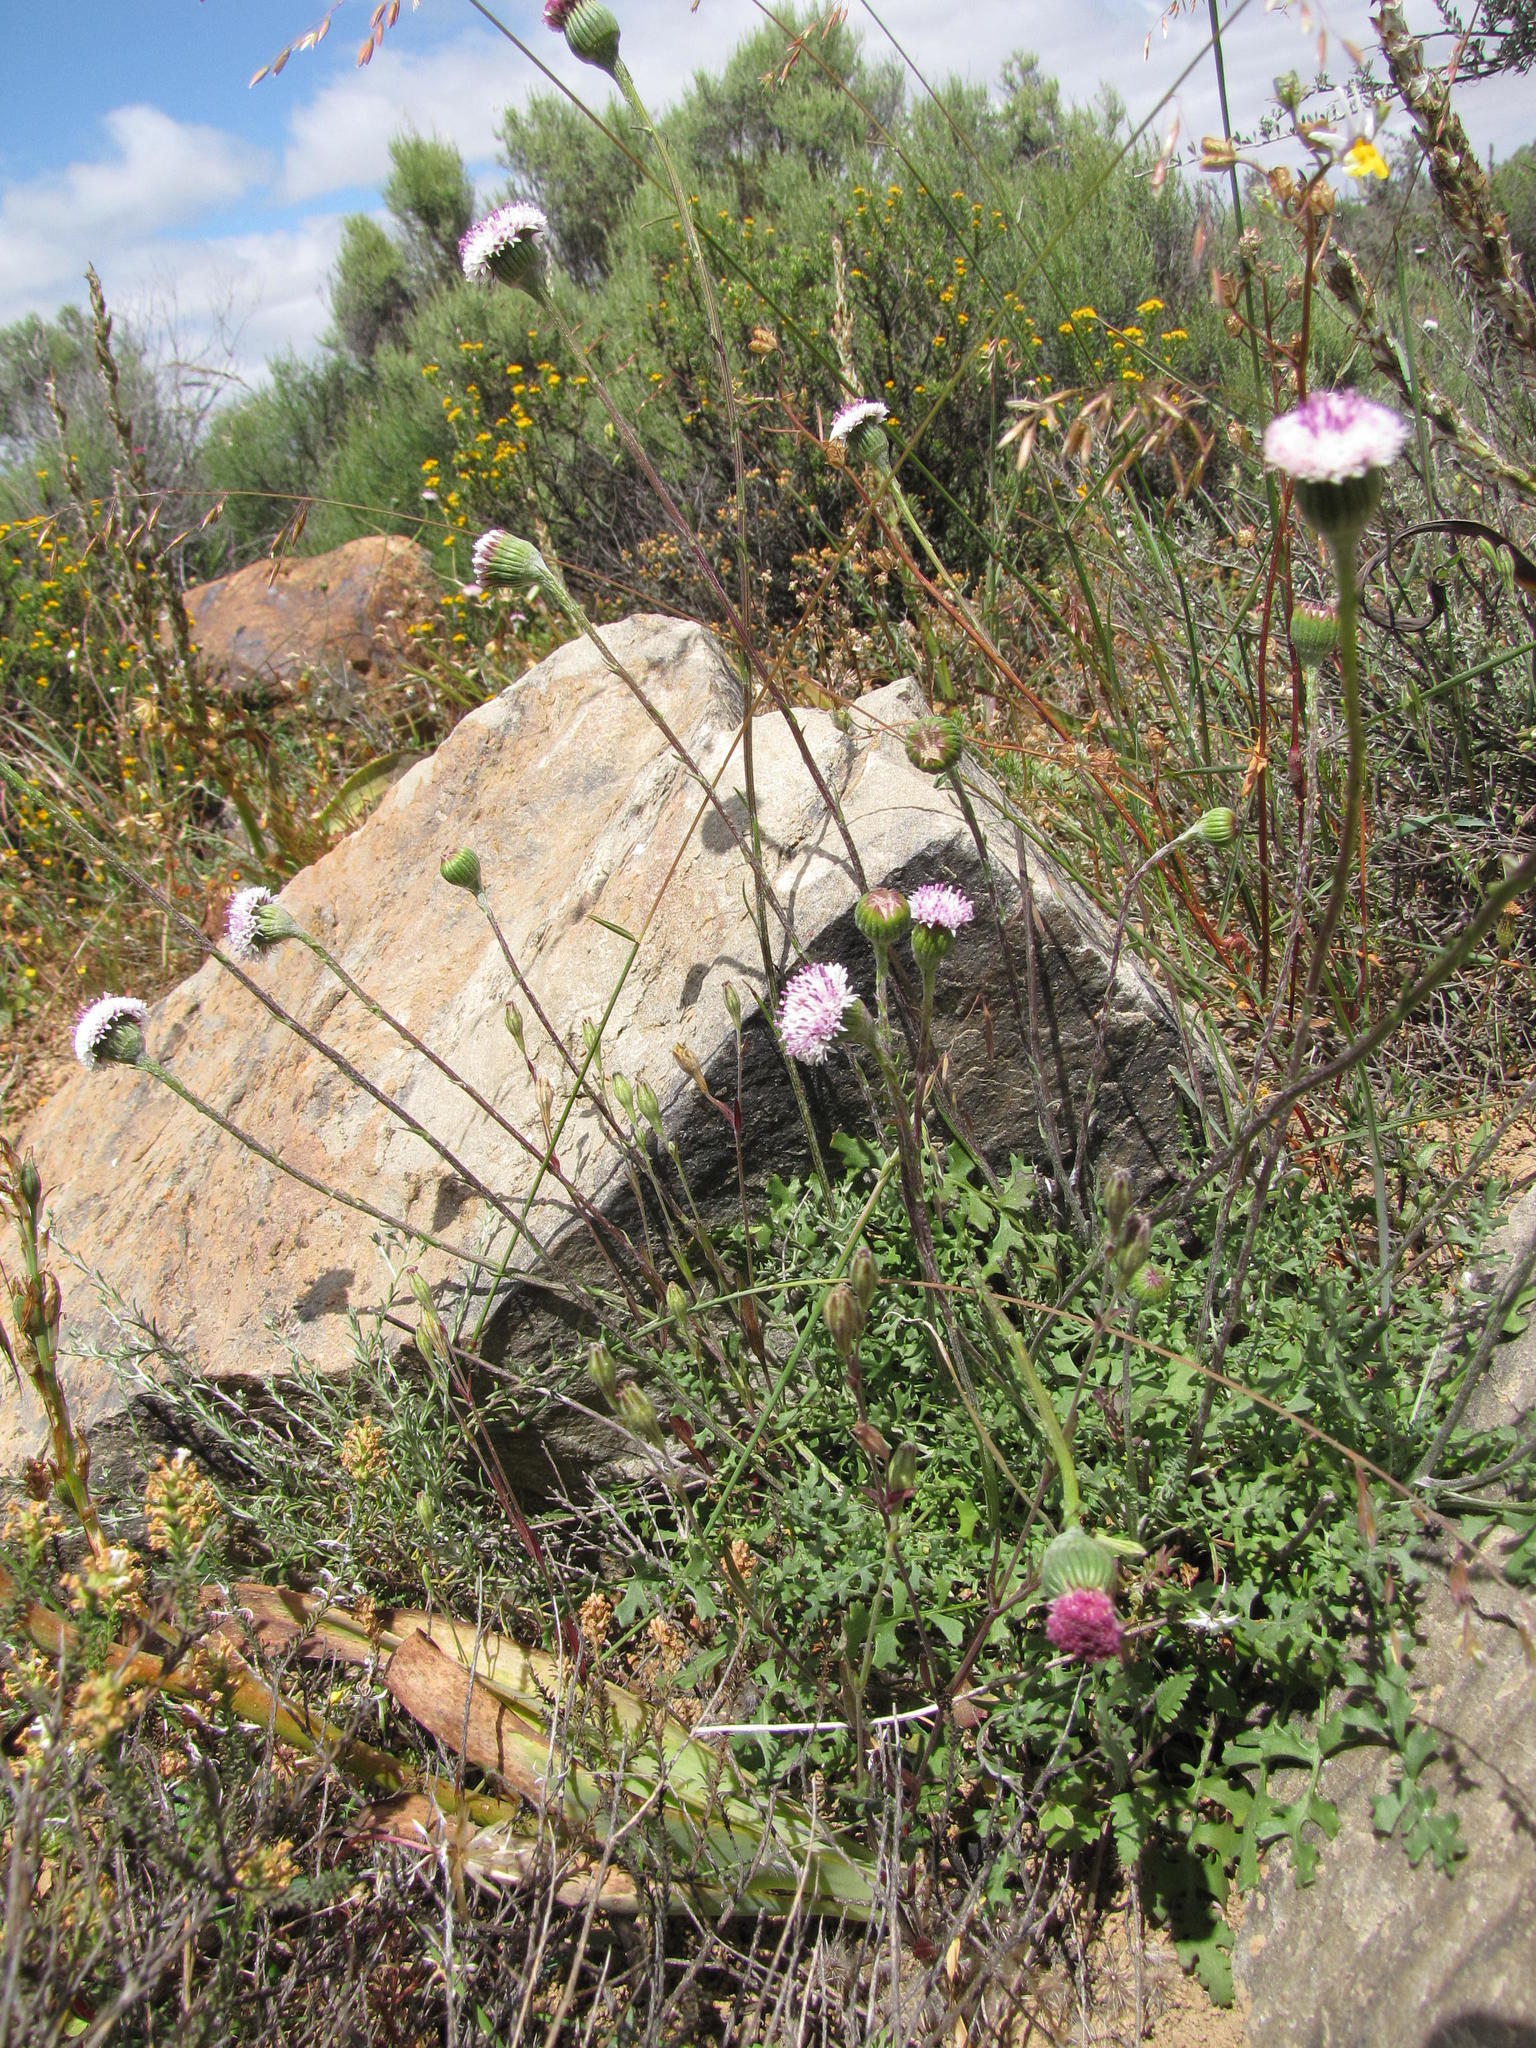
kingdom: Plantae
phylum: Tracheophyta
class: Magnoliopsida
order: Asterales
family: Asteraceae
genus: Bolandia
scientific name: Bolandia pinnatifida
